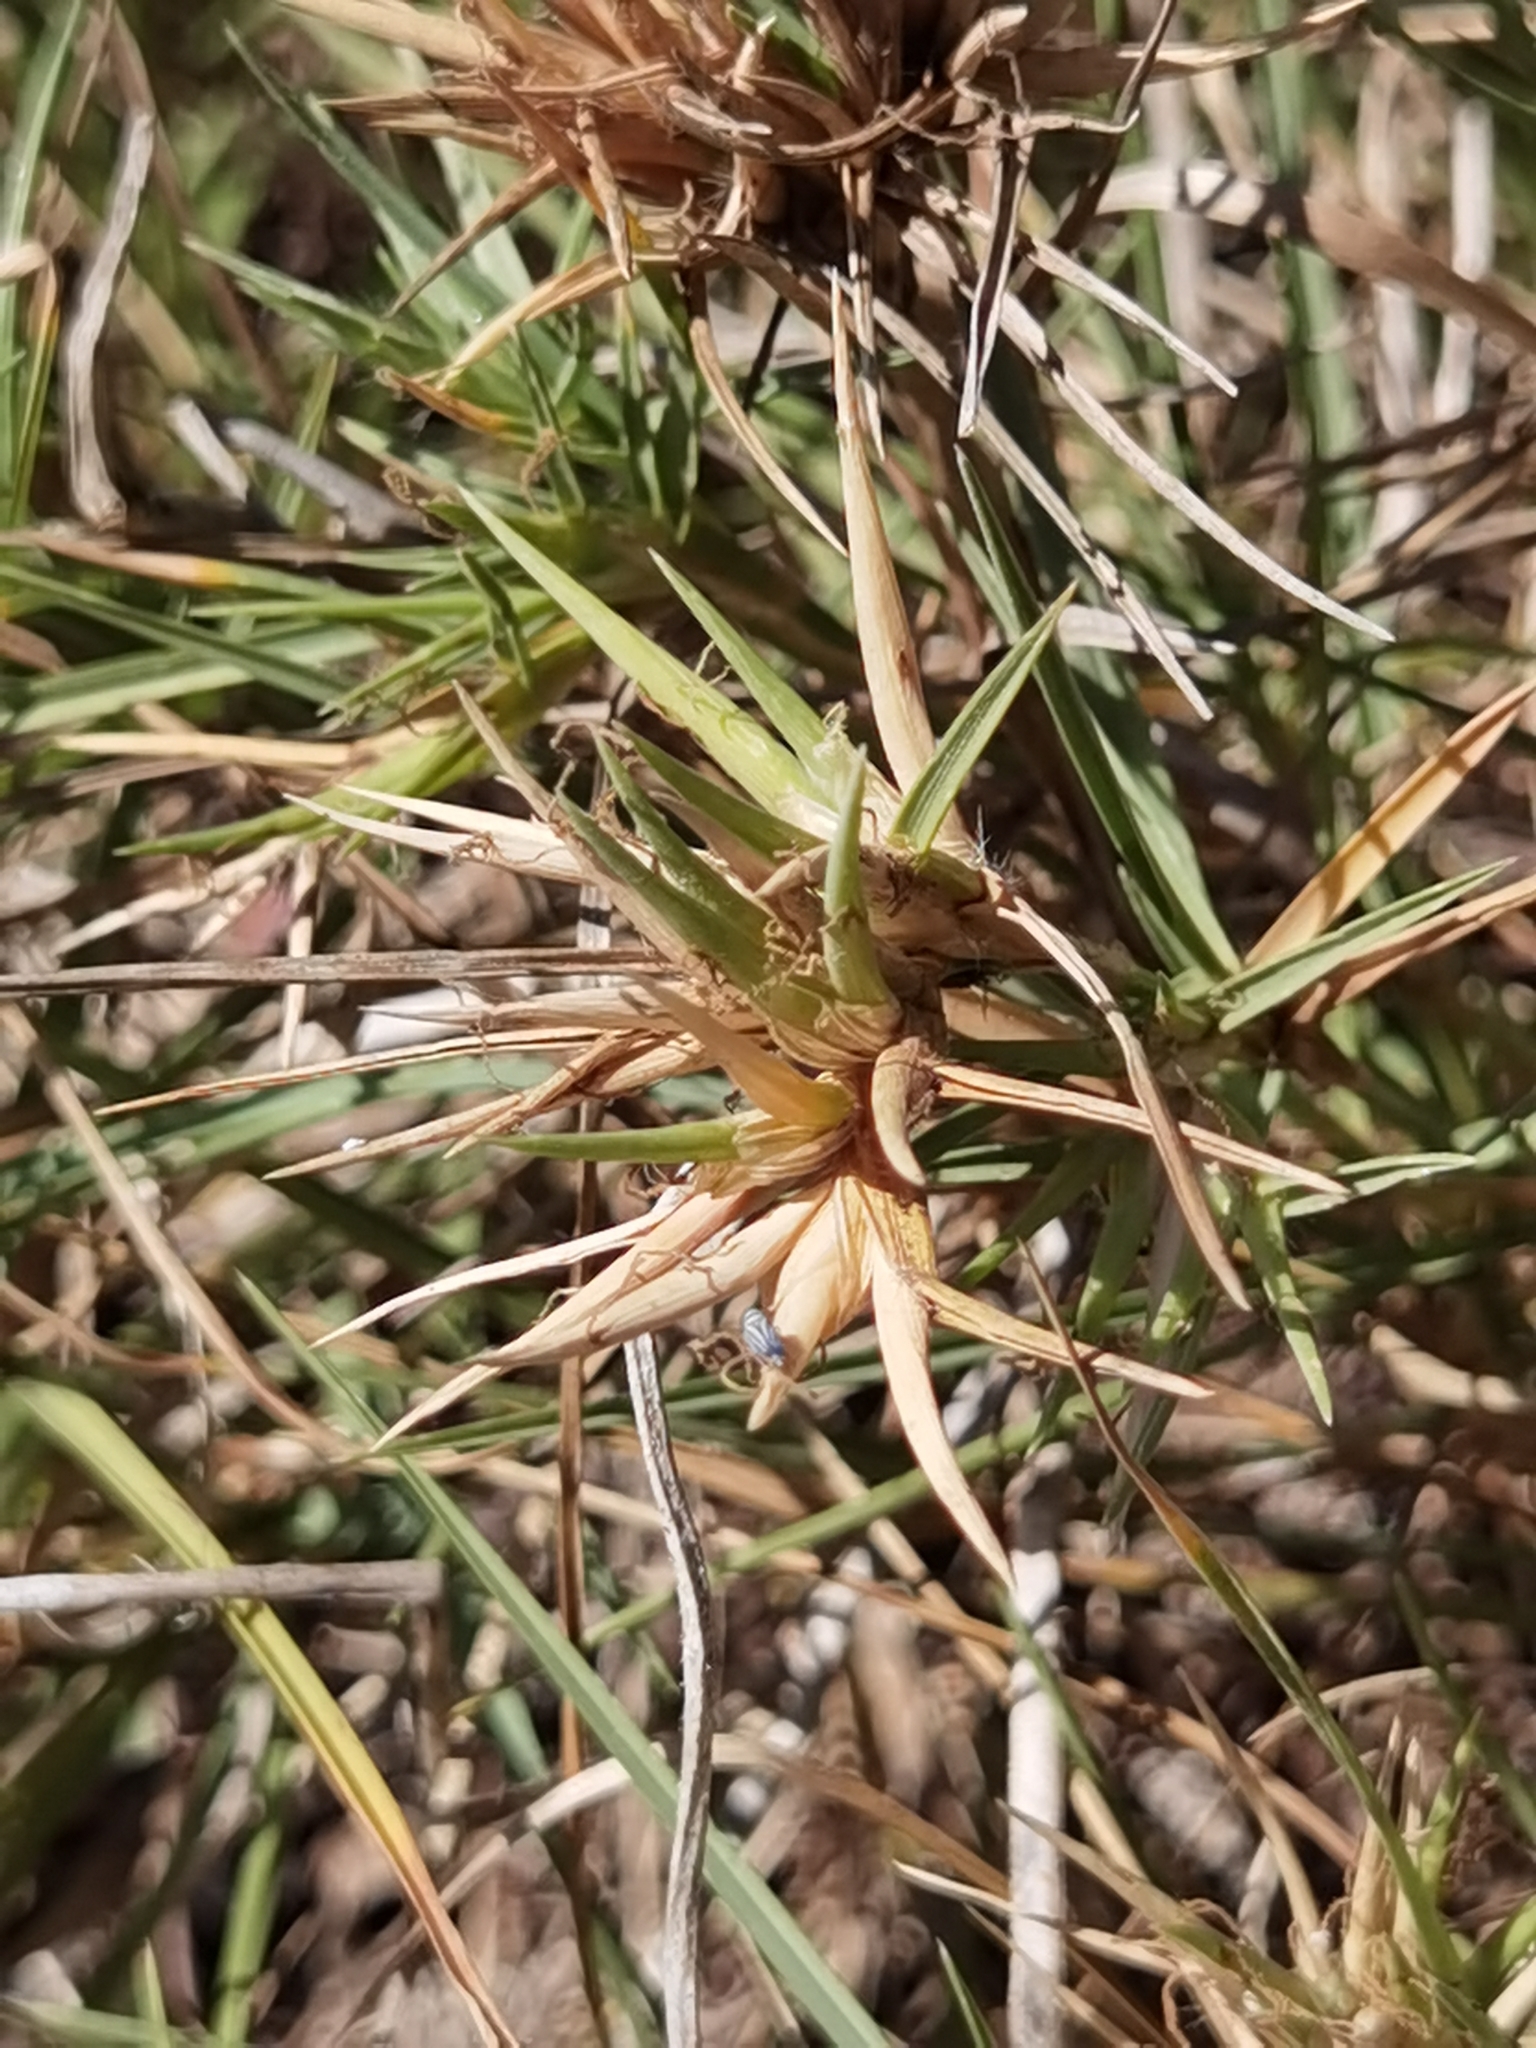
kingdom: Plantae
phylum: Tracheophyta
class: Liliopsida
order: Poales
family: Poaceae
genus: Jouvea
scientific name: Jouvea pilosa
